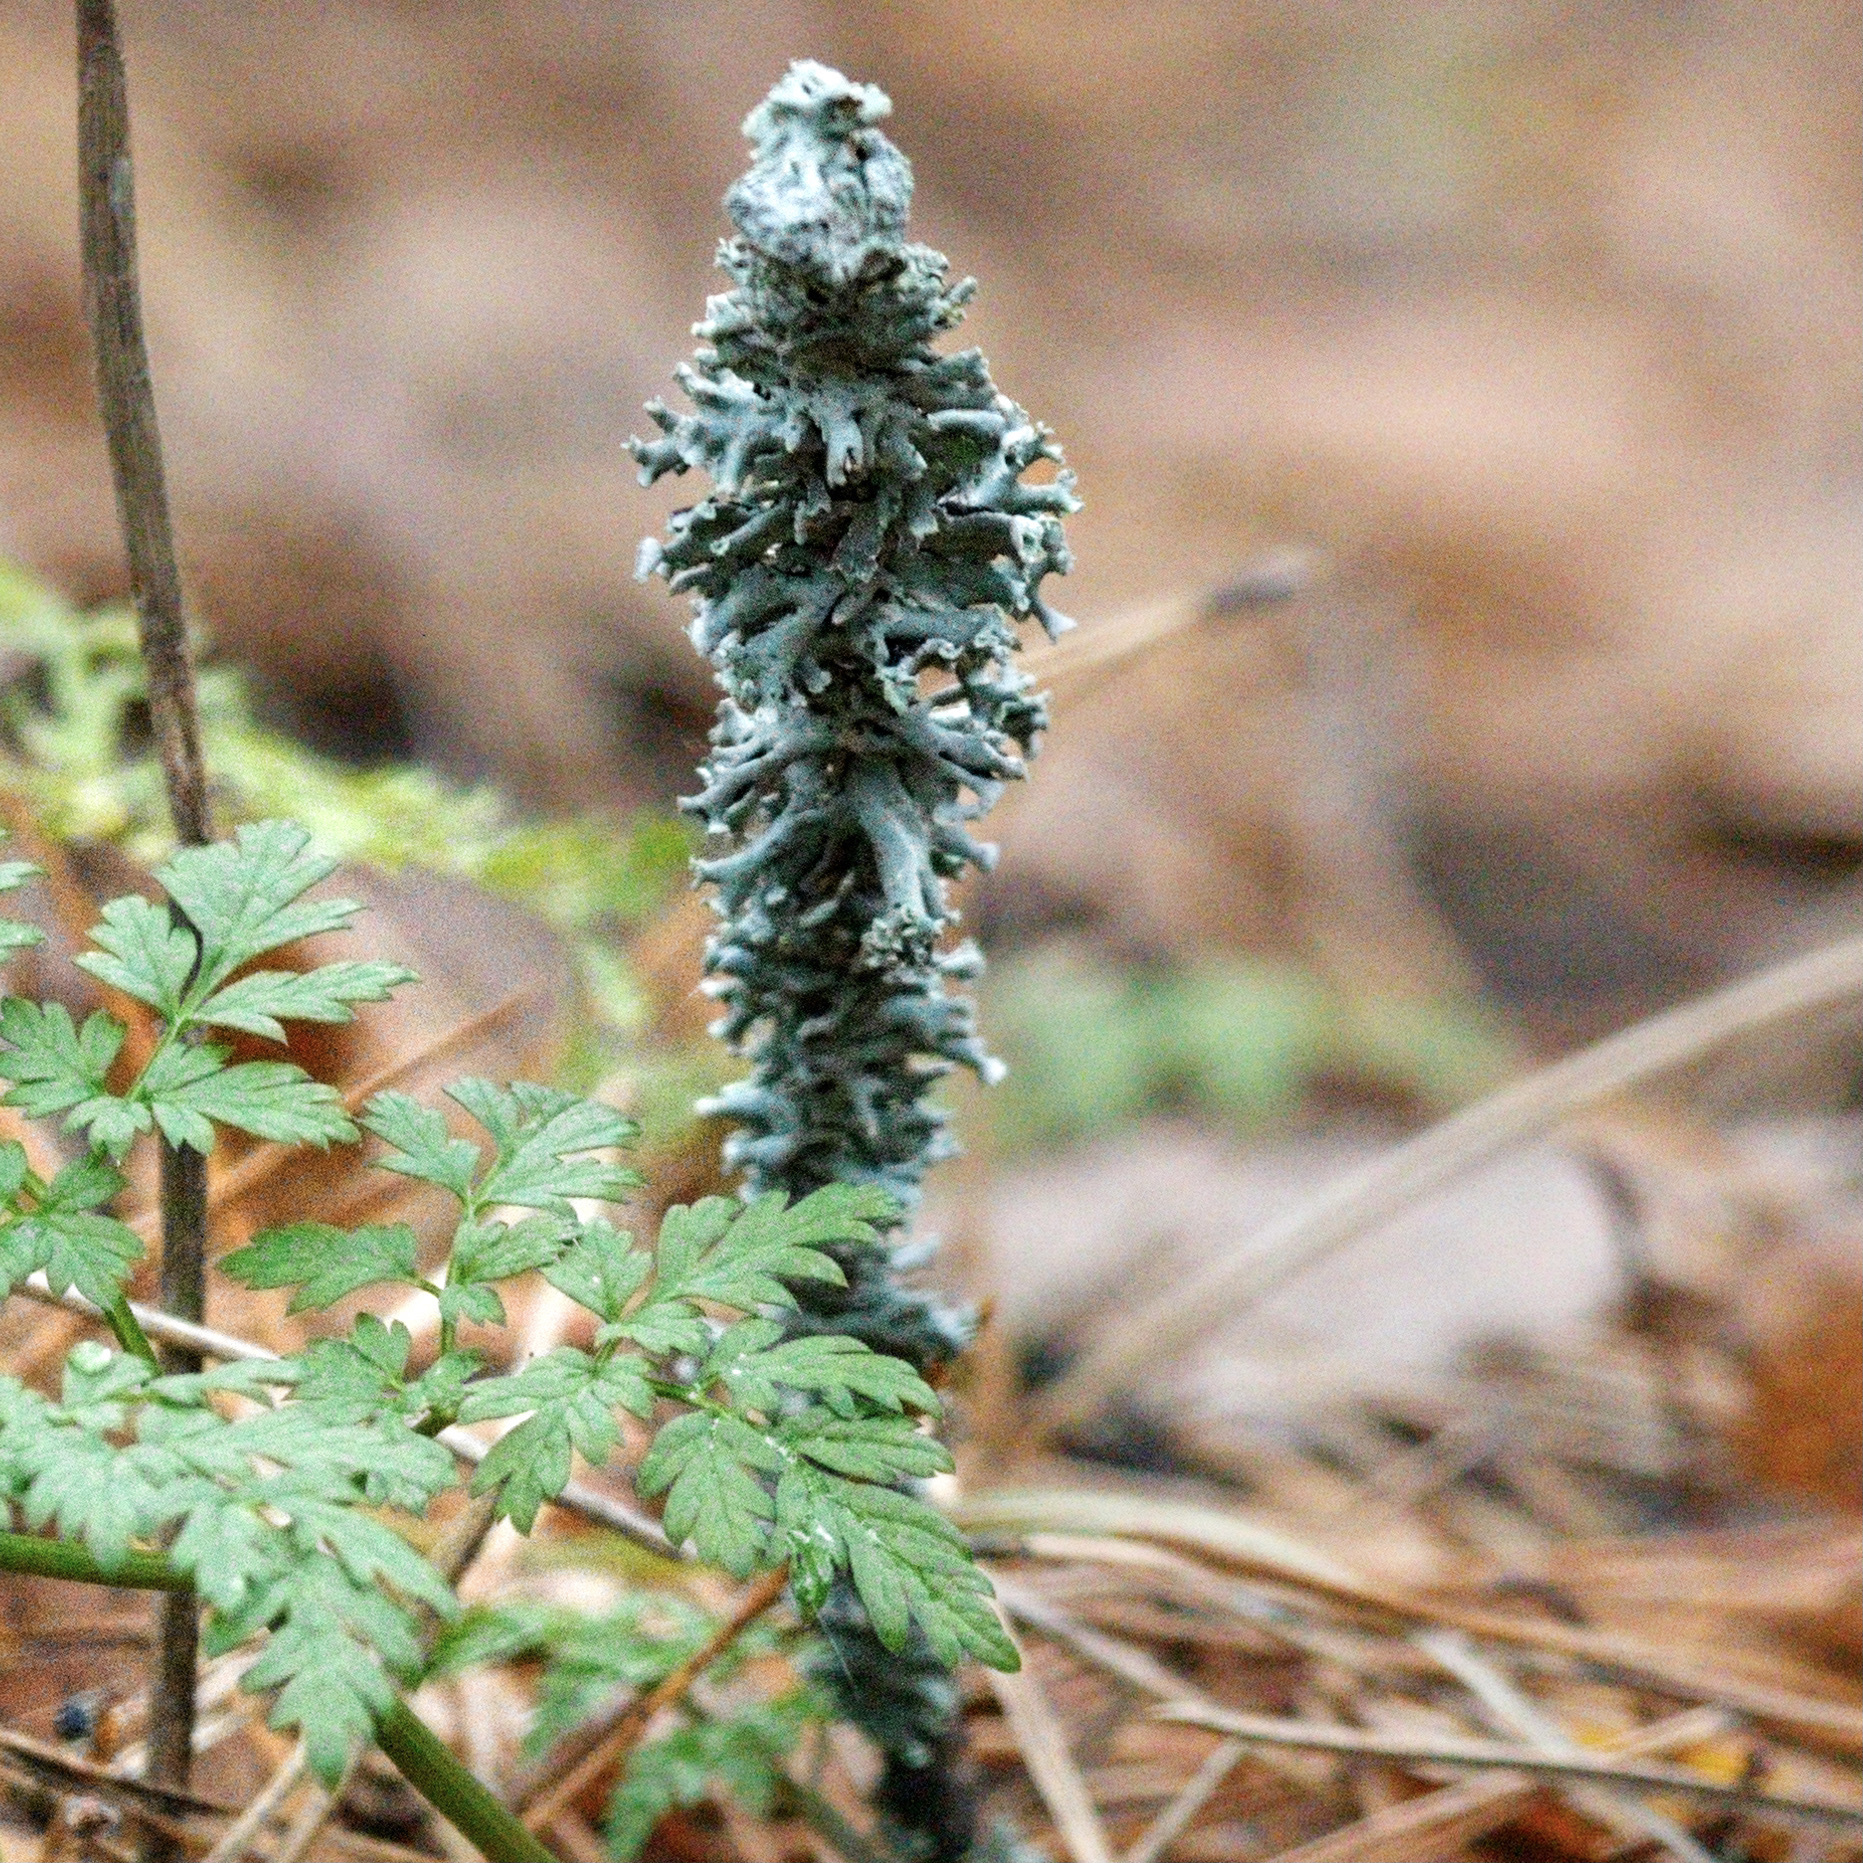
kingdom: Fungi
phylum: Ascomycota
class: Lecanoromycetes
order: Lecanorales
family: Parmeliaceae
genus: Hypogymnia
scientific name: Hypogymnia physodes
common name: Dark crottle
